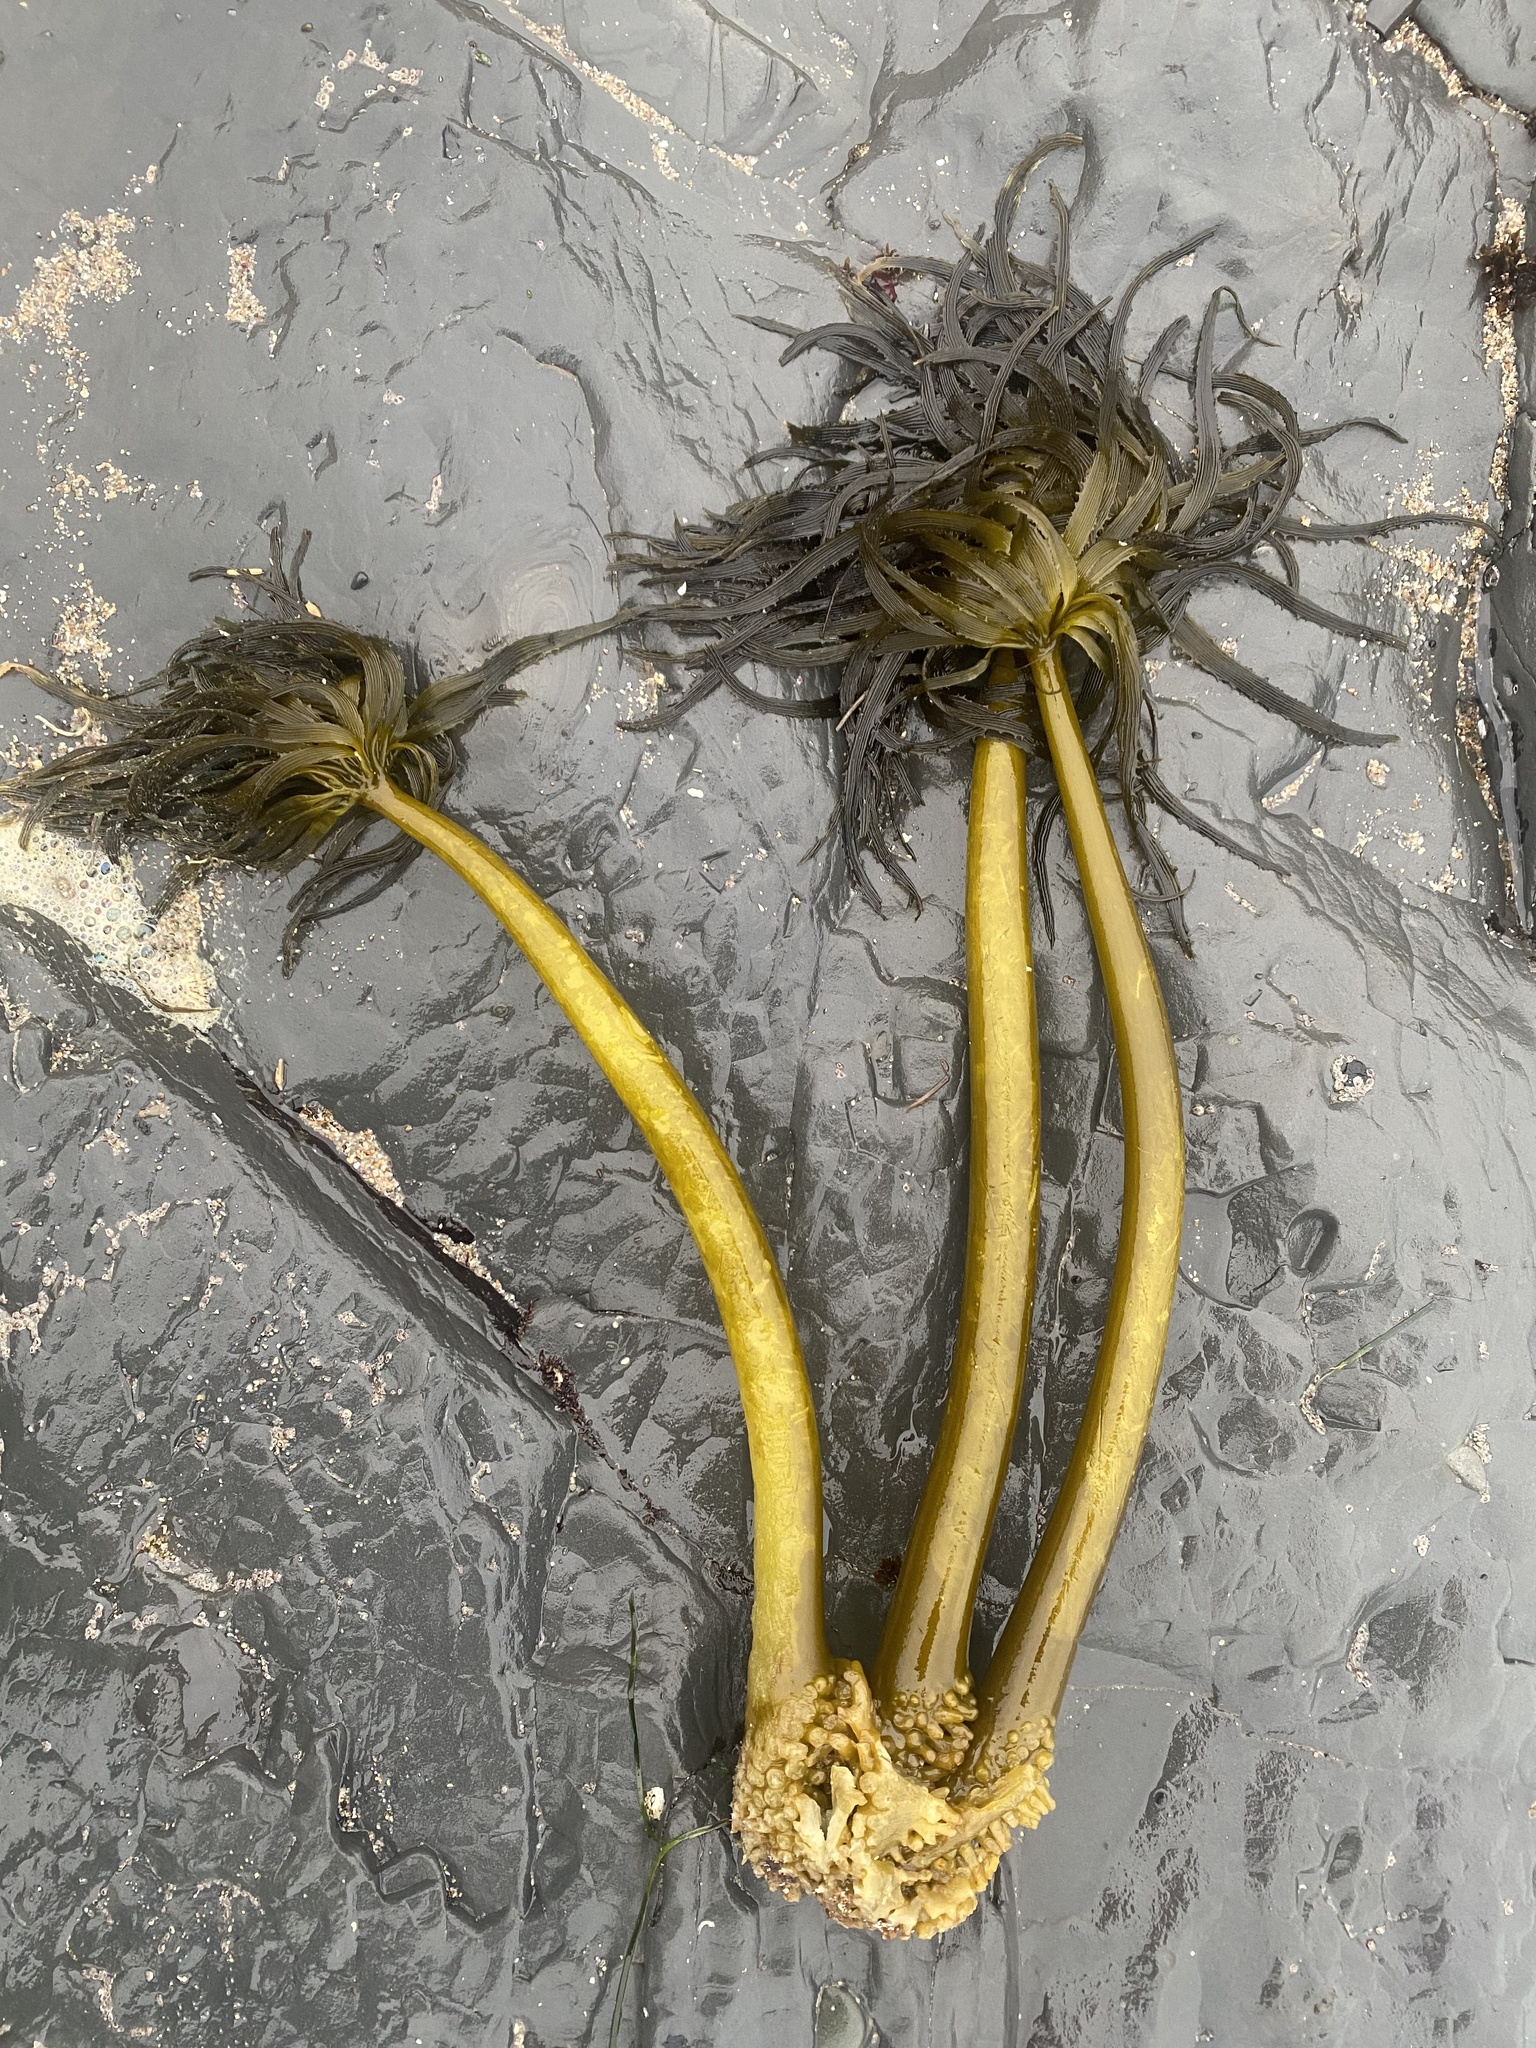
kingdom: Chromista
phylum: Ochrophyta
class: Phaeophyceae
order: Laminariales
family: Laminariaceae
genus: Postelsia
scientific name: Postelsia palmiformis
